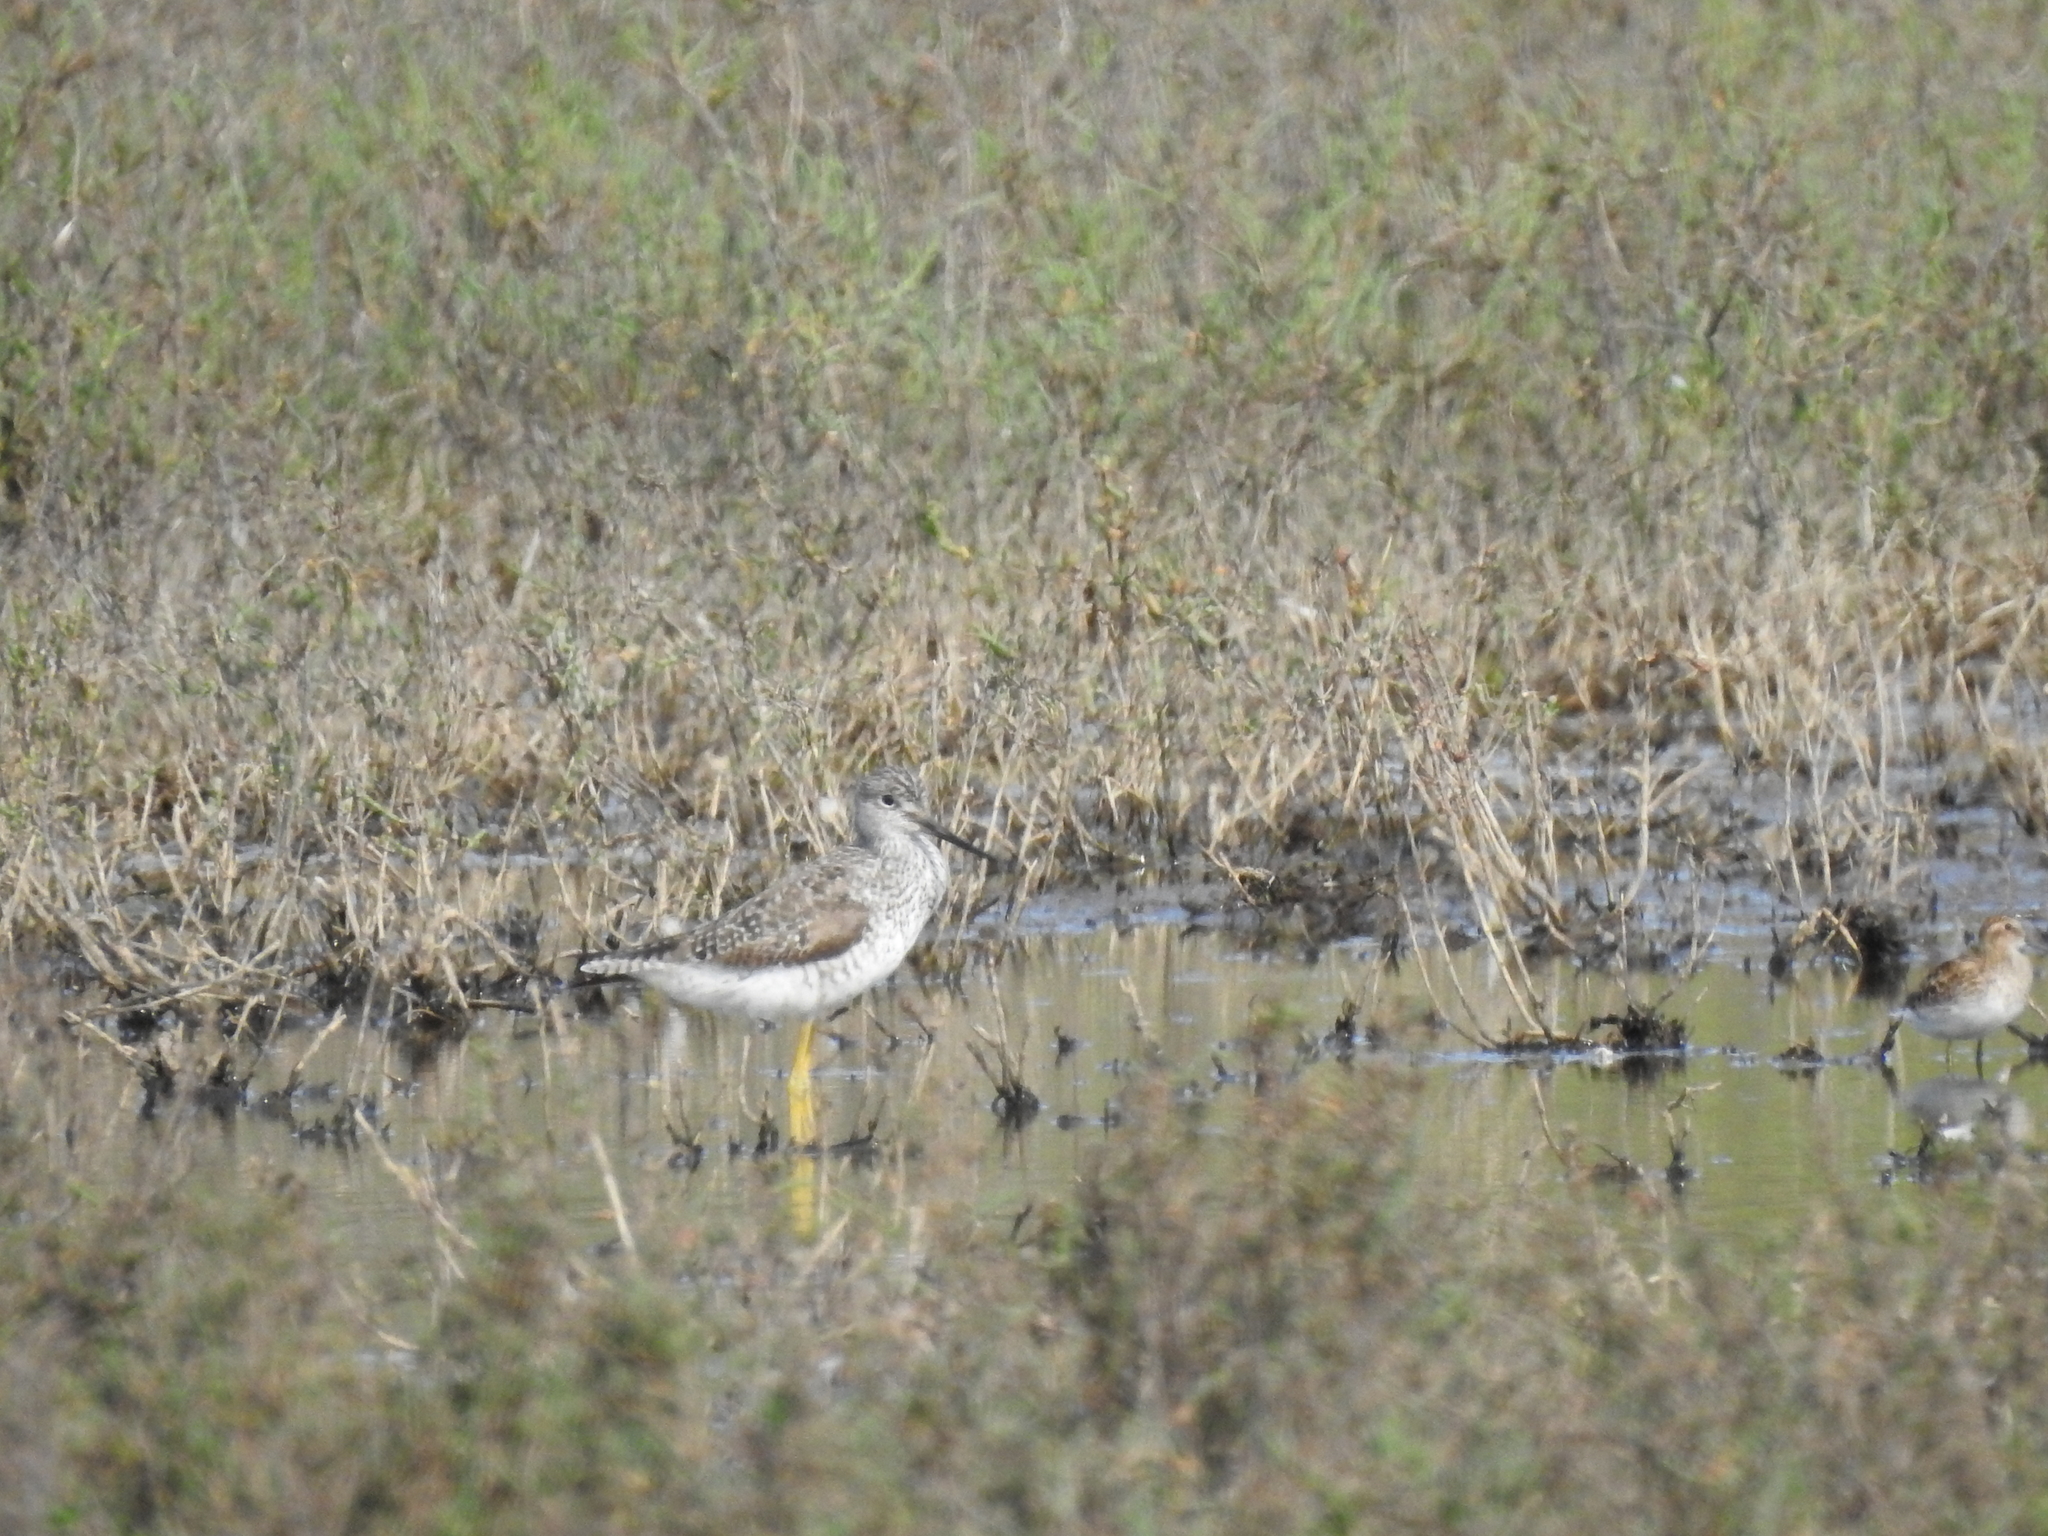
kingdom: Animalia
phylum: Chordata
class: Aves
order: Charadriiformes
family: Scolopacidae
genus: Tringa
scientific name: Tringa melanoleuca
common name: Greater yellowlegs
